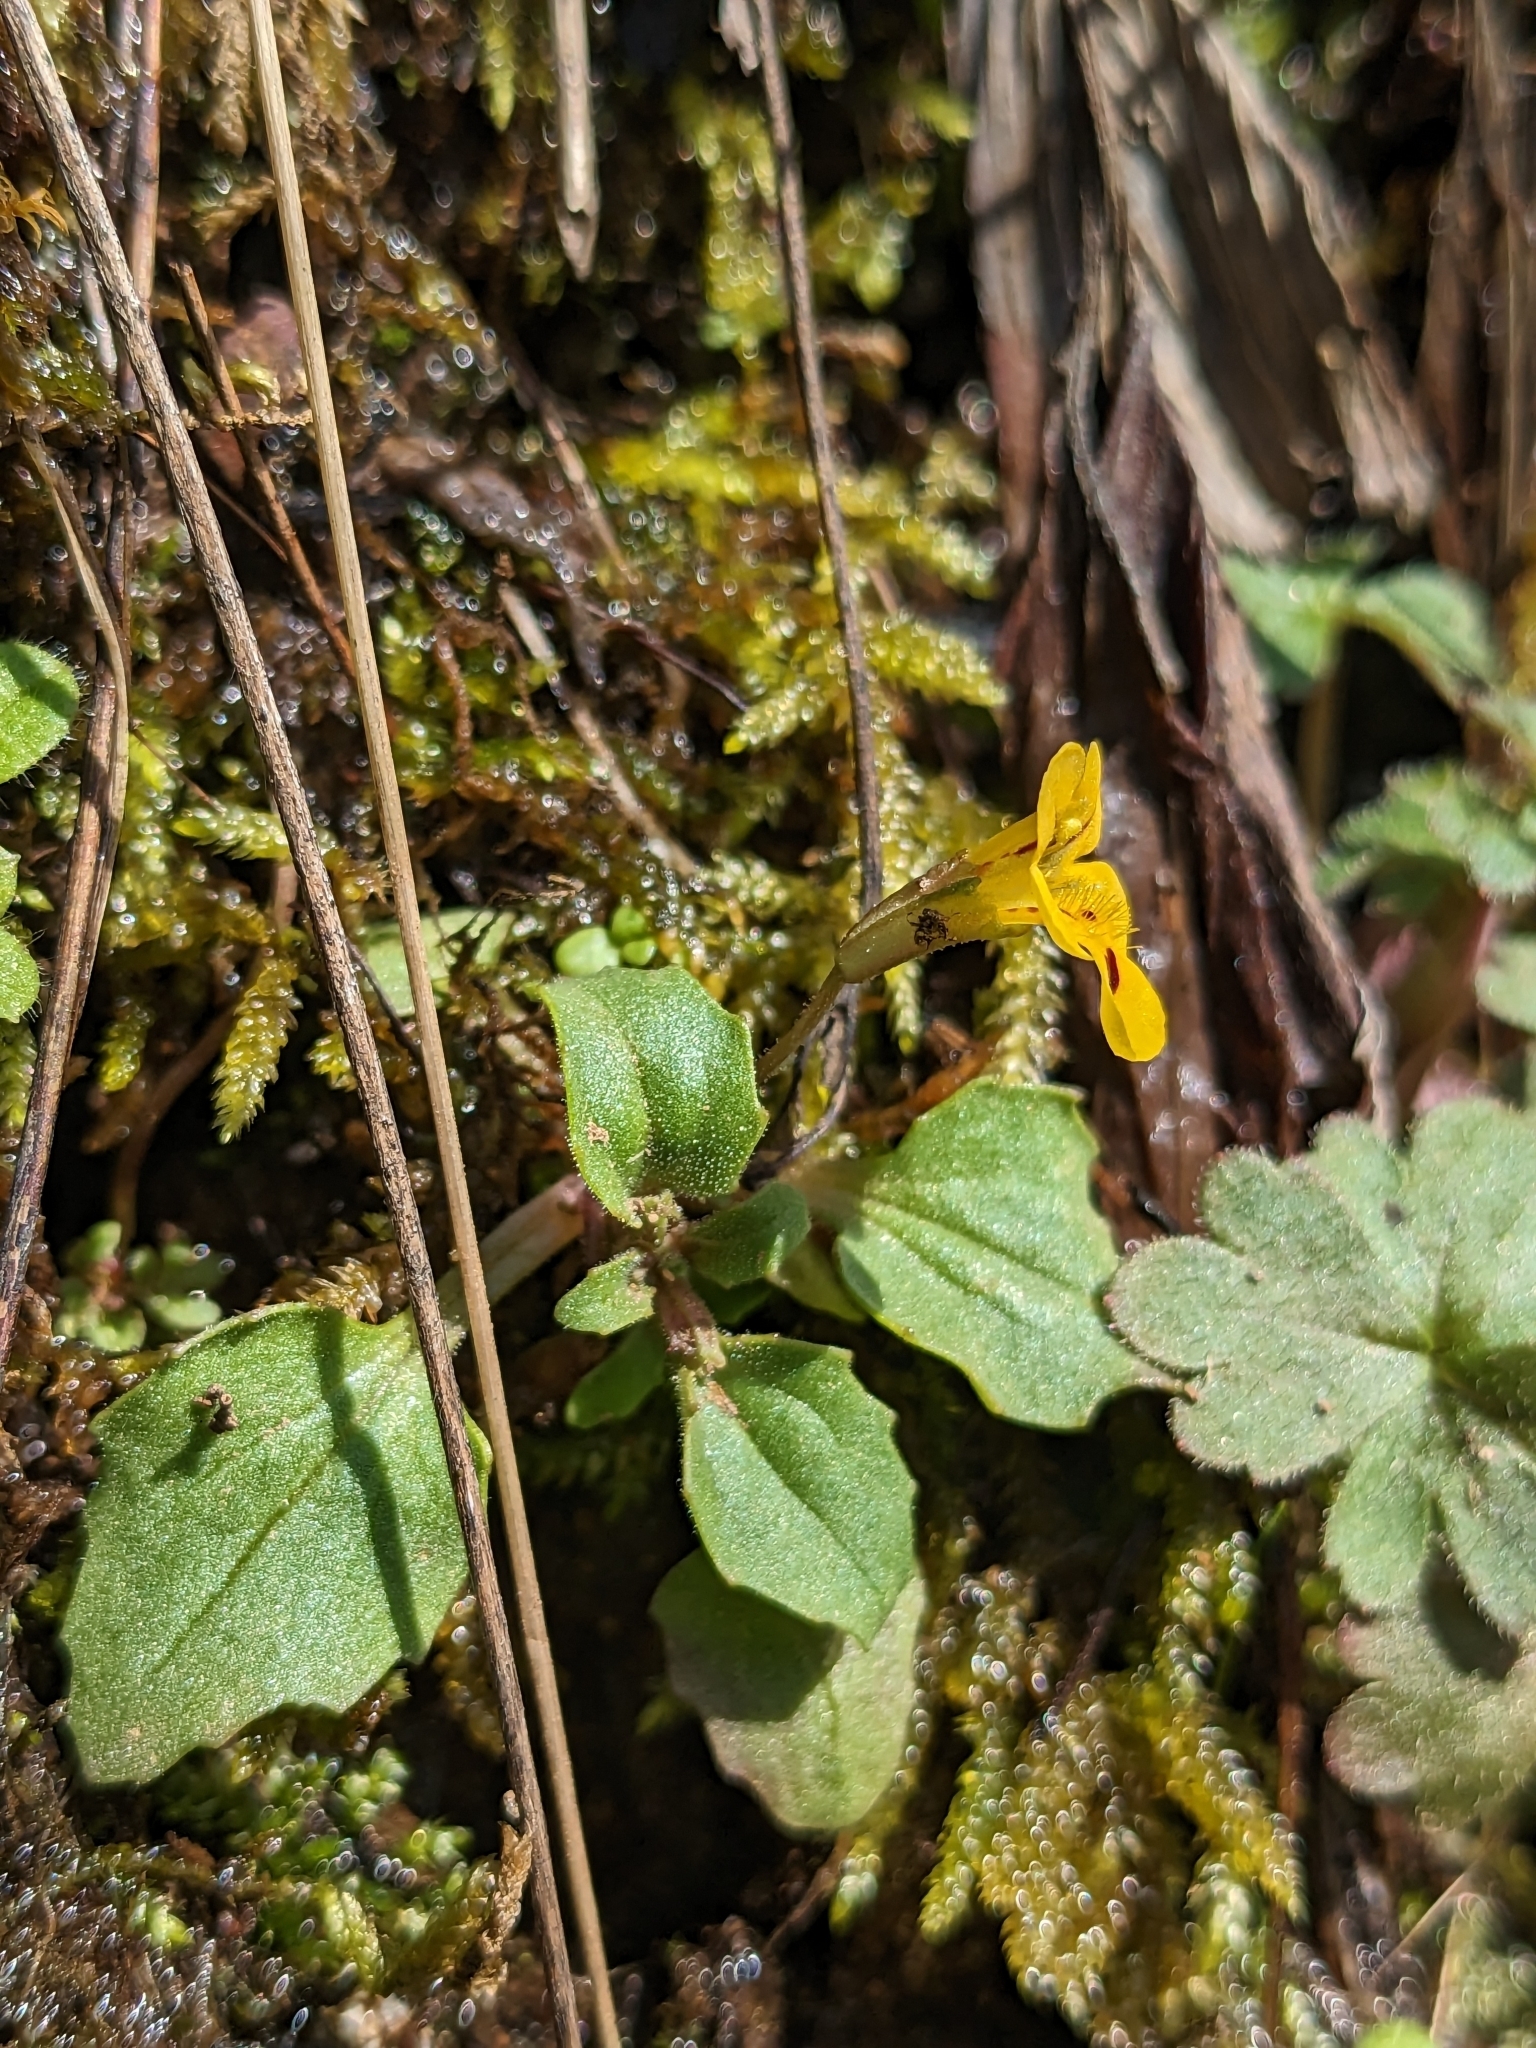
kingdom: Plantae
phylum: Tracheophyta
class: Magnoliopsida
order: Lamiales
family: Phrymaceae
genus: Erythranthe
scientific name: Erythranthe alsinoides
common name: Chickweed monkeyflower
